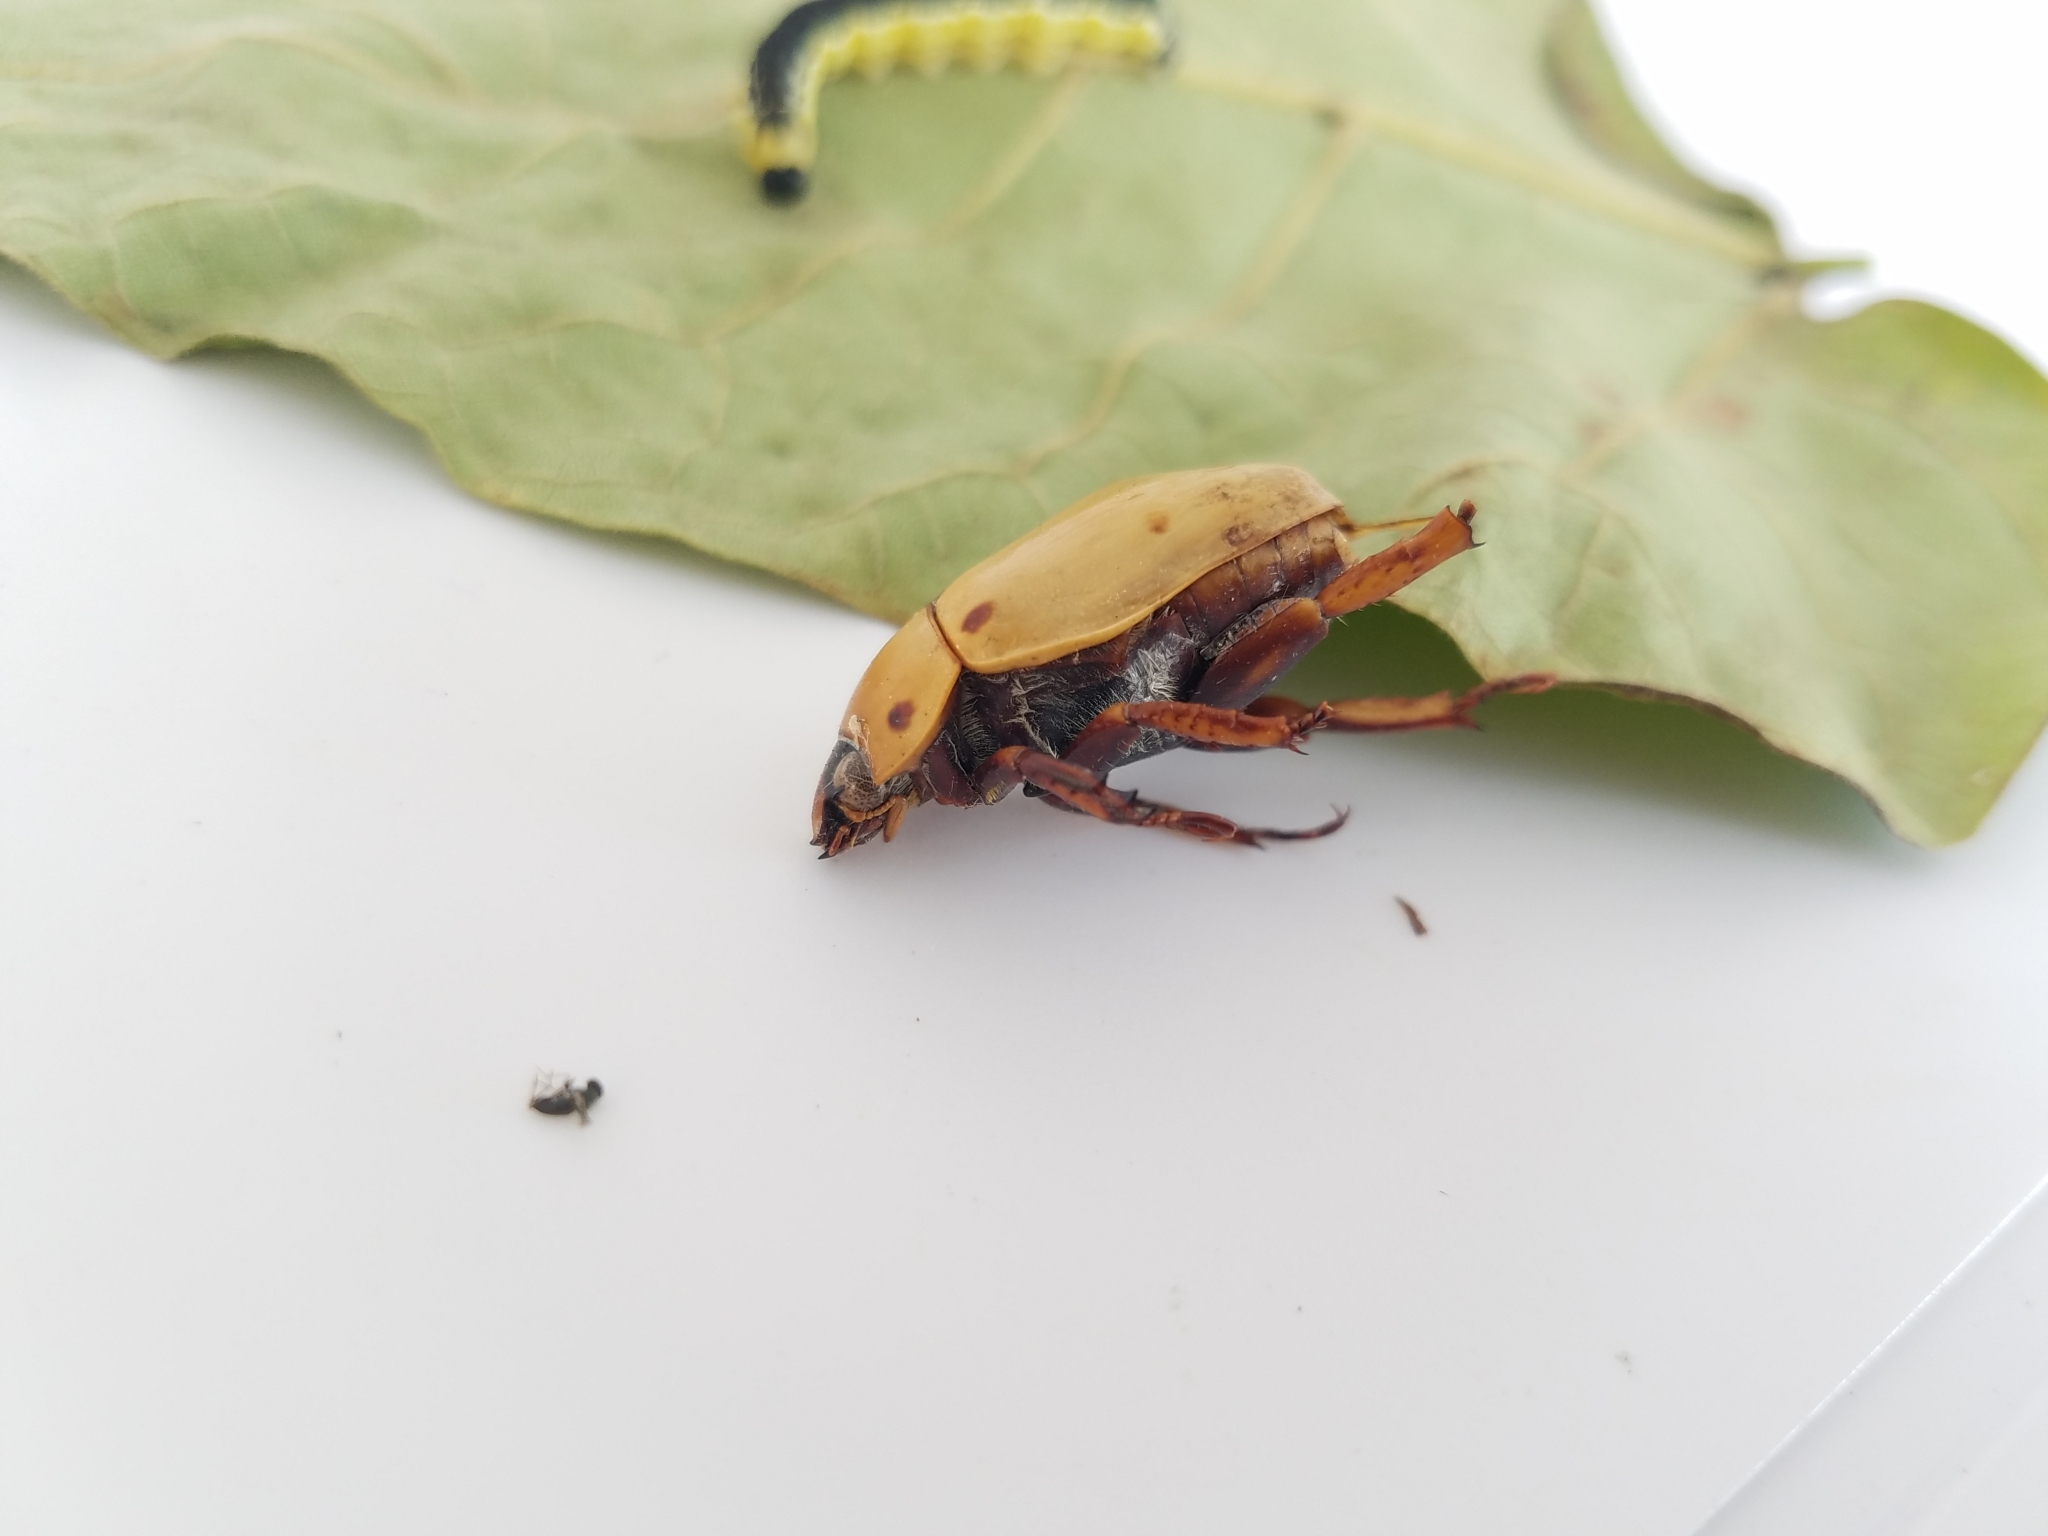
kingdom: Animalia
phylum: Arthropoda
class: Insecta
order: Coleoptera
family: Scarabaeidae
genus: Pelidnota
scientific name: Pelidnota punctata
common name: Grapevine beetle
